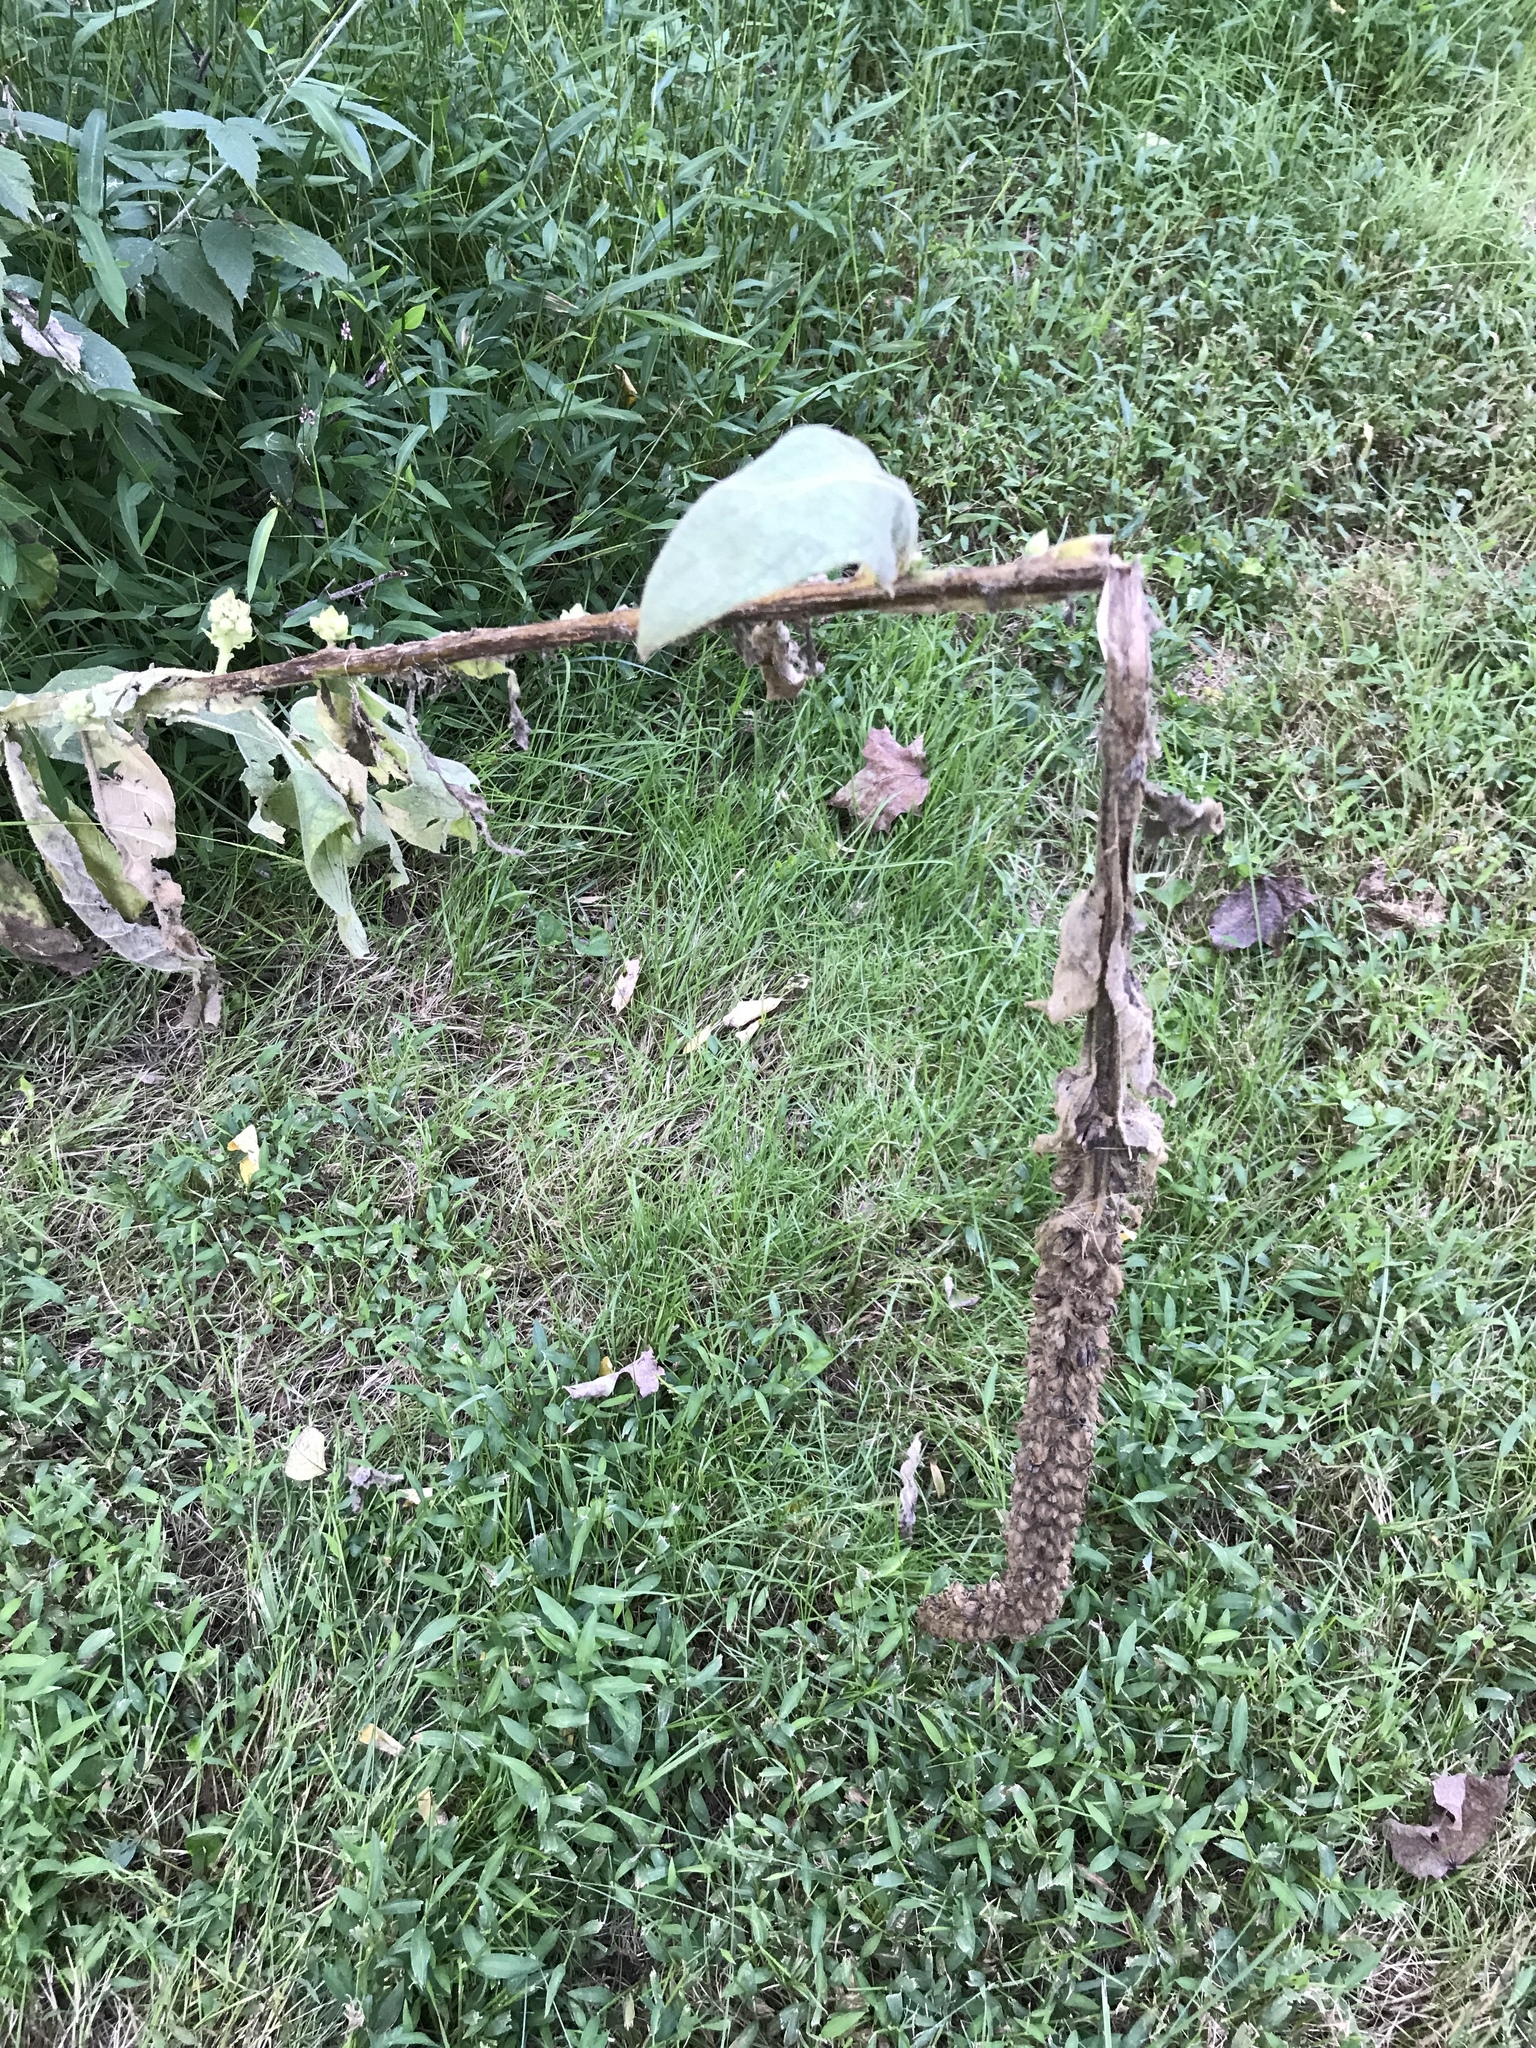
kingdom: Plantae
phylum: Tracheophyta
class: Magnoliopsida
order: Lamiales
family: Scrophulariaceae
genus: Verbascum
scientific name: Verbascum thapsus
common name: Common mullein
